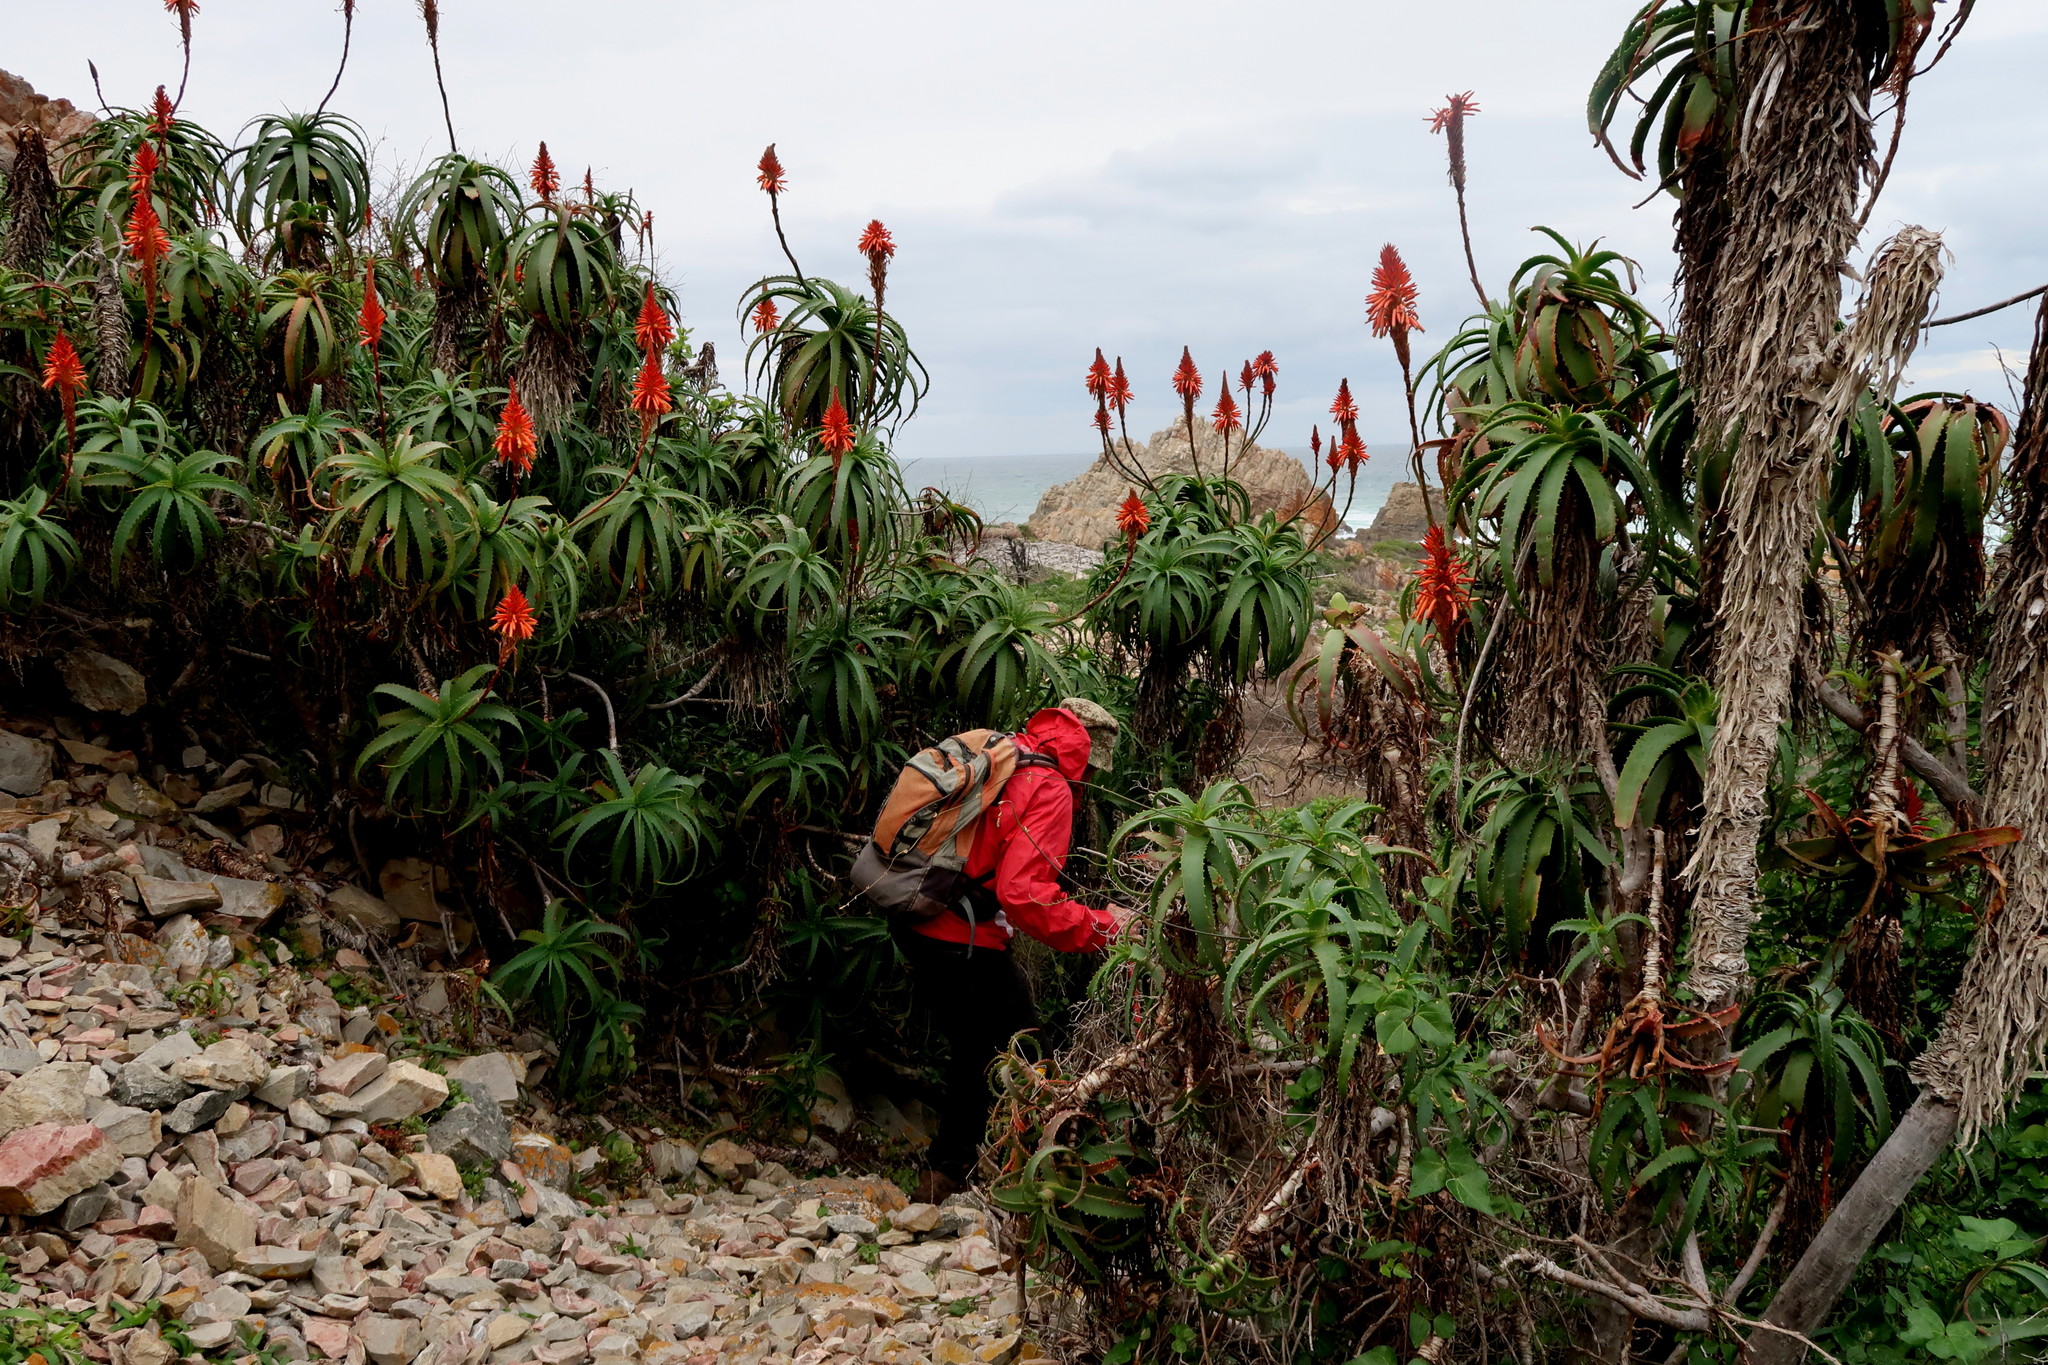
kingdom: Plantae
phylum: Tracheophyta
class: Liliopsida
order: Asparagales
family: Asphodelaceae
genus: Aloe
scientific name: Aloe arborescens
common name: Candelabra aloe
